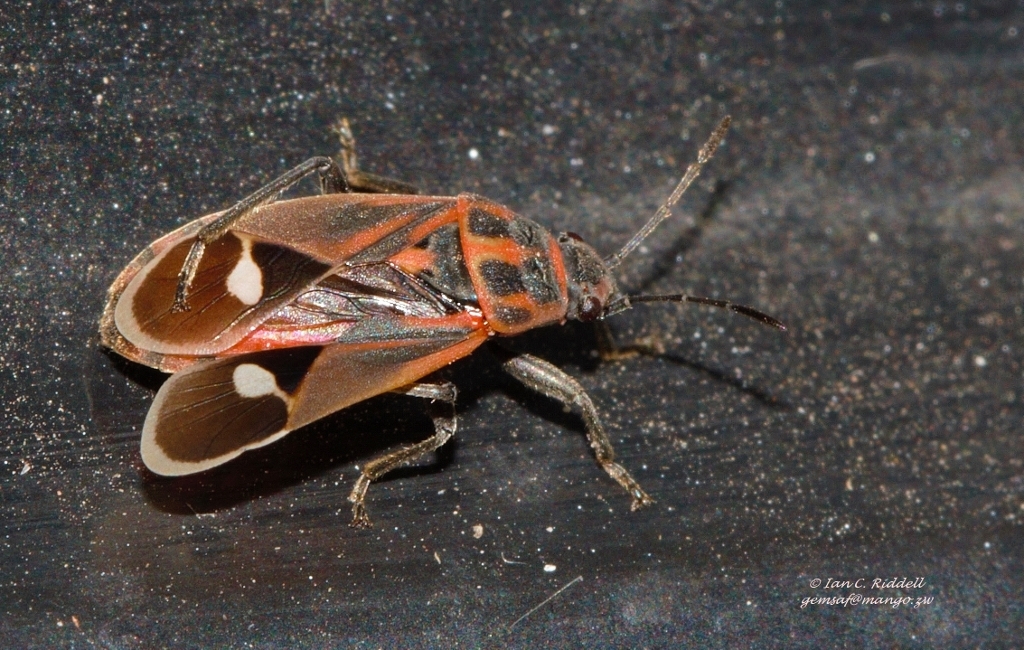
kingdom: Animalia
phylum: Arthropoda
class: Insecta
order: Hemiptera
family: Lygaeidae
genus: Aspilocoryphus
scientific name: Aspilocoryphus fasciativentris
